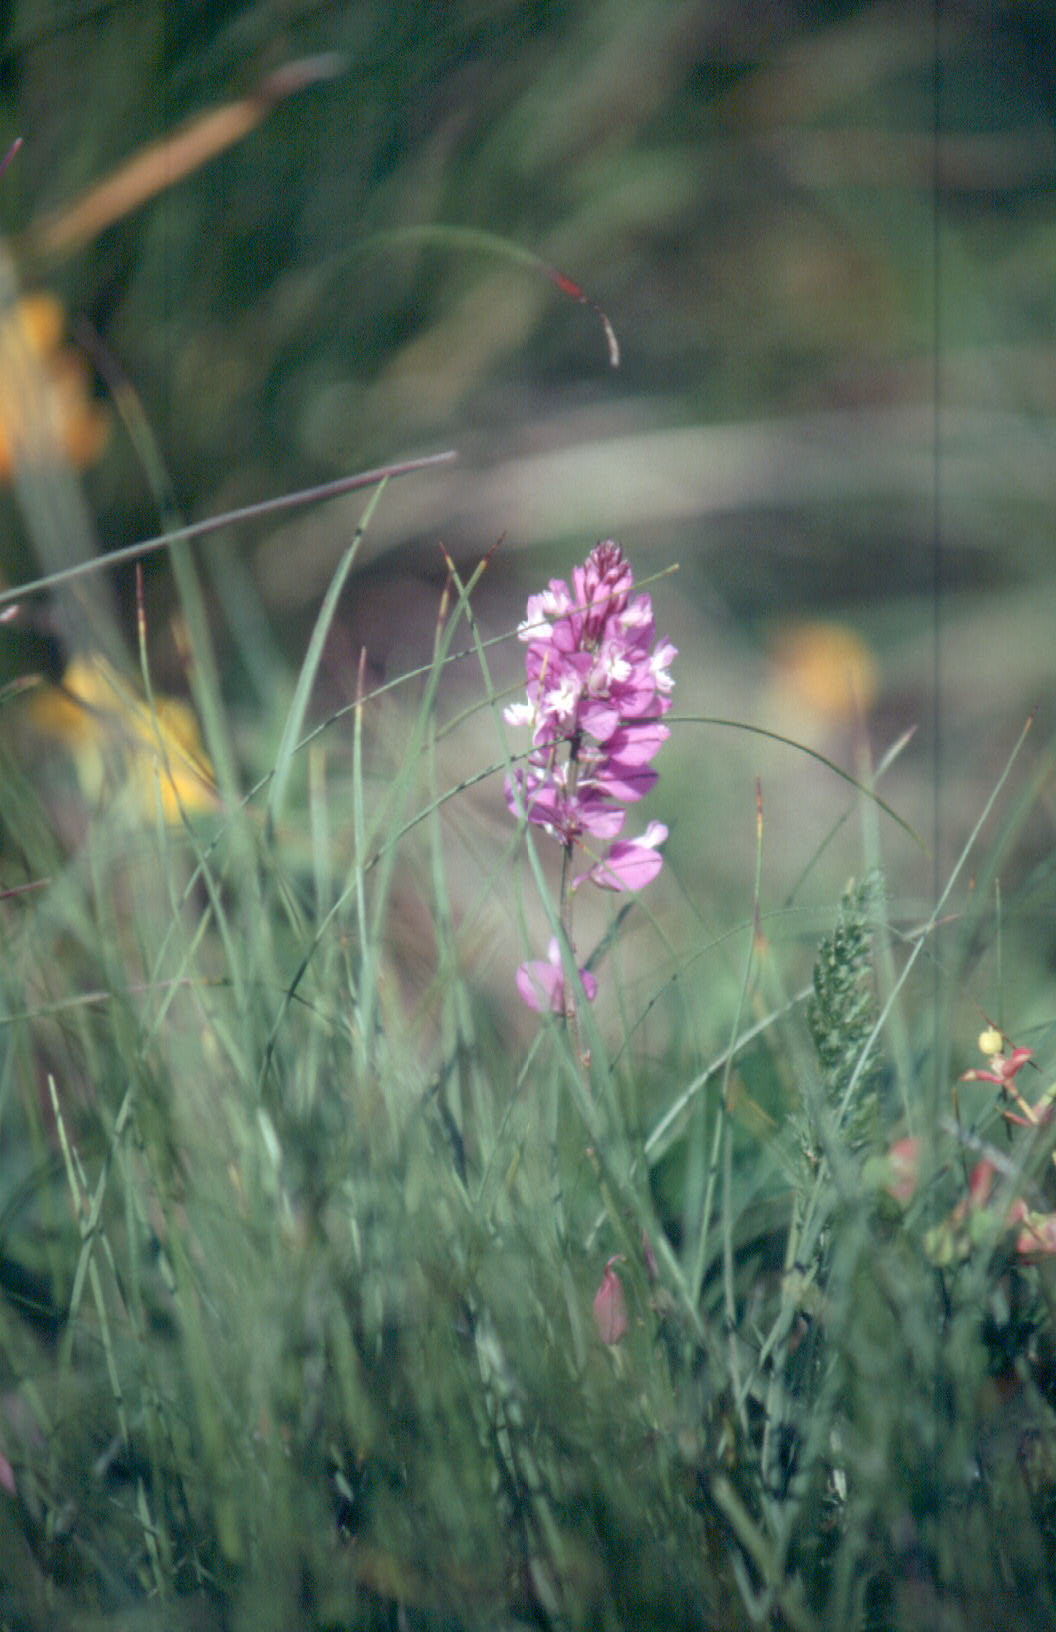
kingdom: Plantae
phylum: Tracheophyta
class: Magnoliopsida
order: Fabales
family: Polygalaceae
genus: Polygala
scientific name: Polygala major
